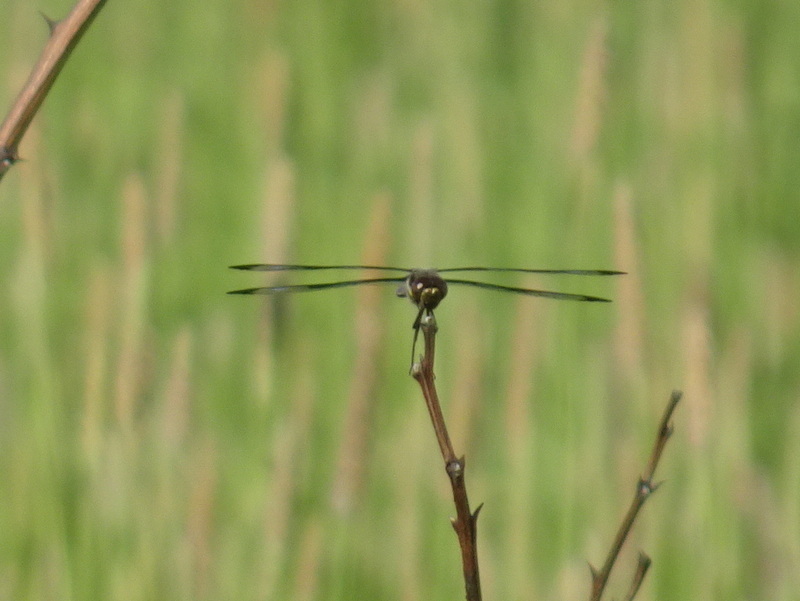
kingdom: Animalia
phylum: Arthropoda
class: Insecta
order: Odonata
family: Libellulidae
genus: Libellula
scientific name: Libellula pulchella
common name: Twelve-spotted skimmer
